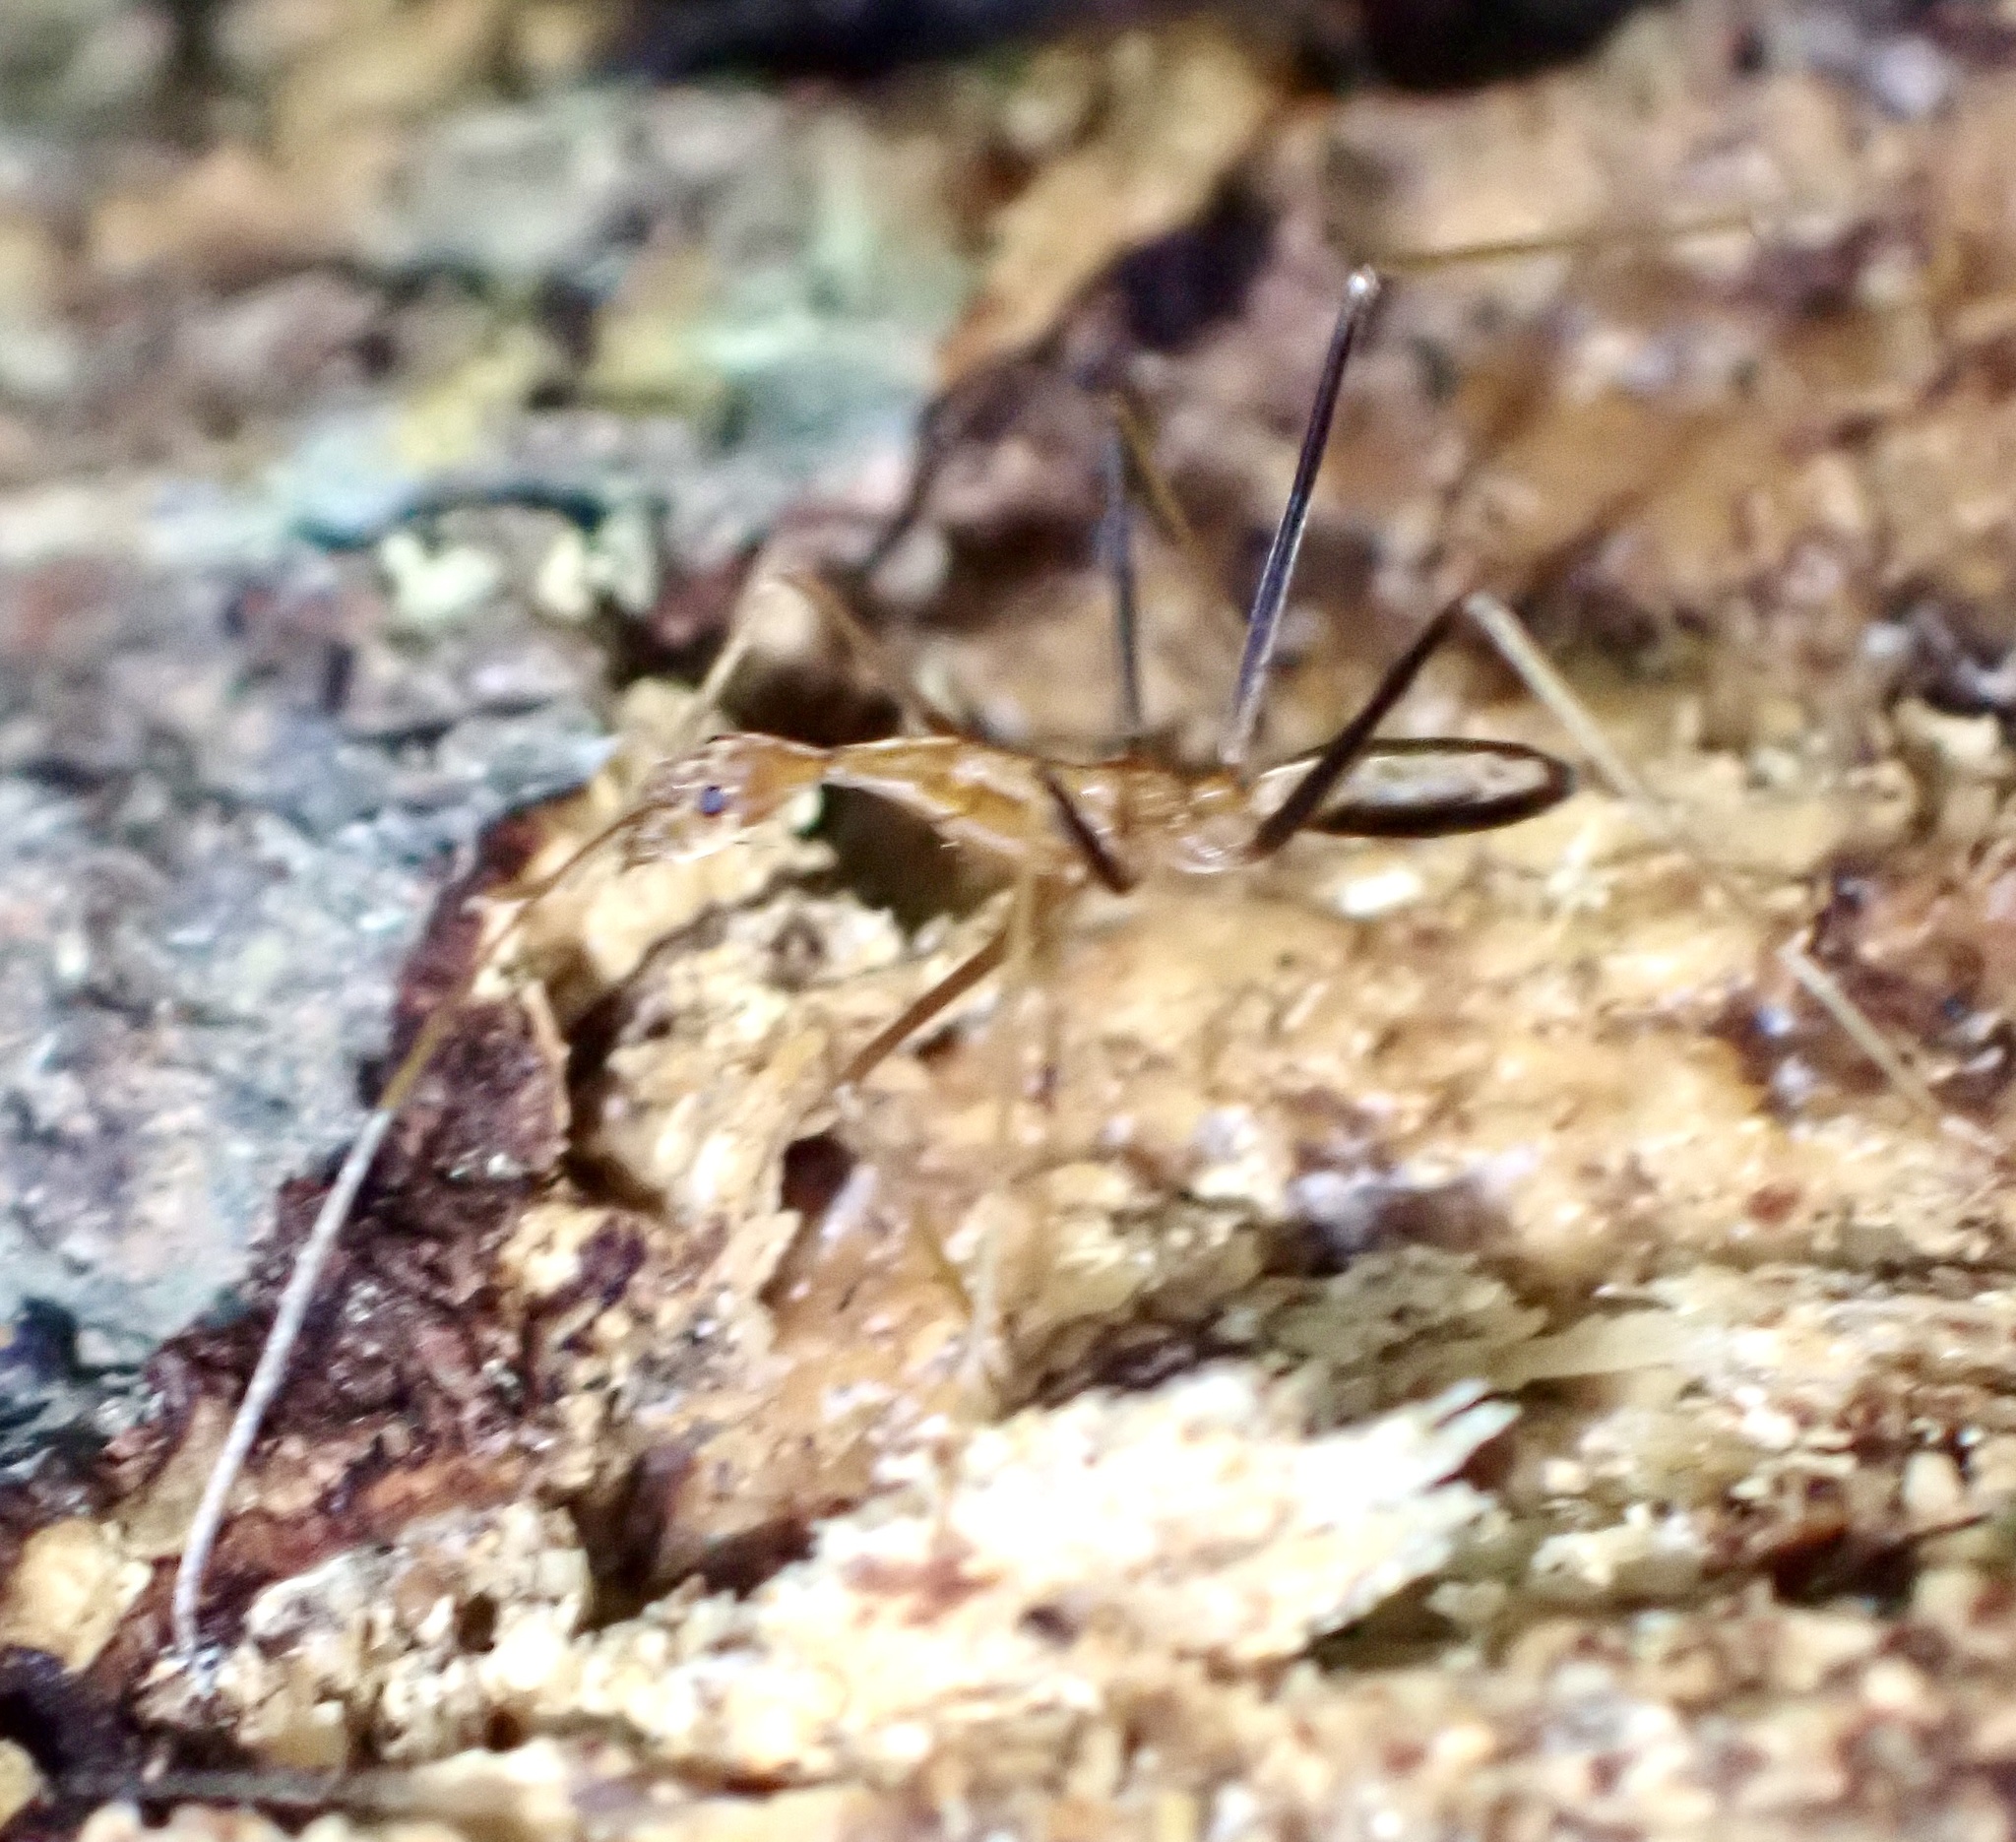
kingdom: Animalia
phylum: Arthropoda
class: Insecta
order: Hymenoptera
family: Formicidae
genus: Leptomyrmex
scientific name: Leptomyrmex fragilis
